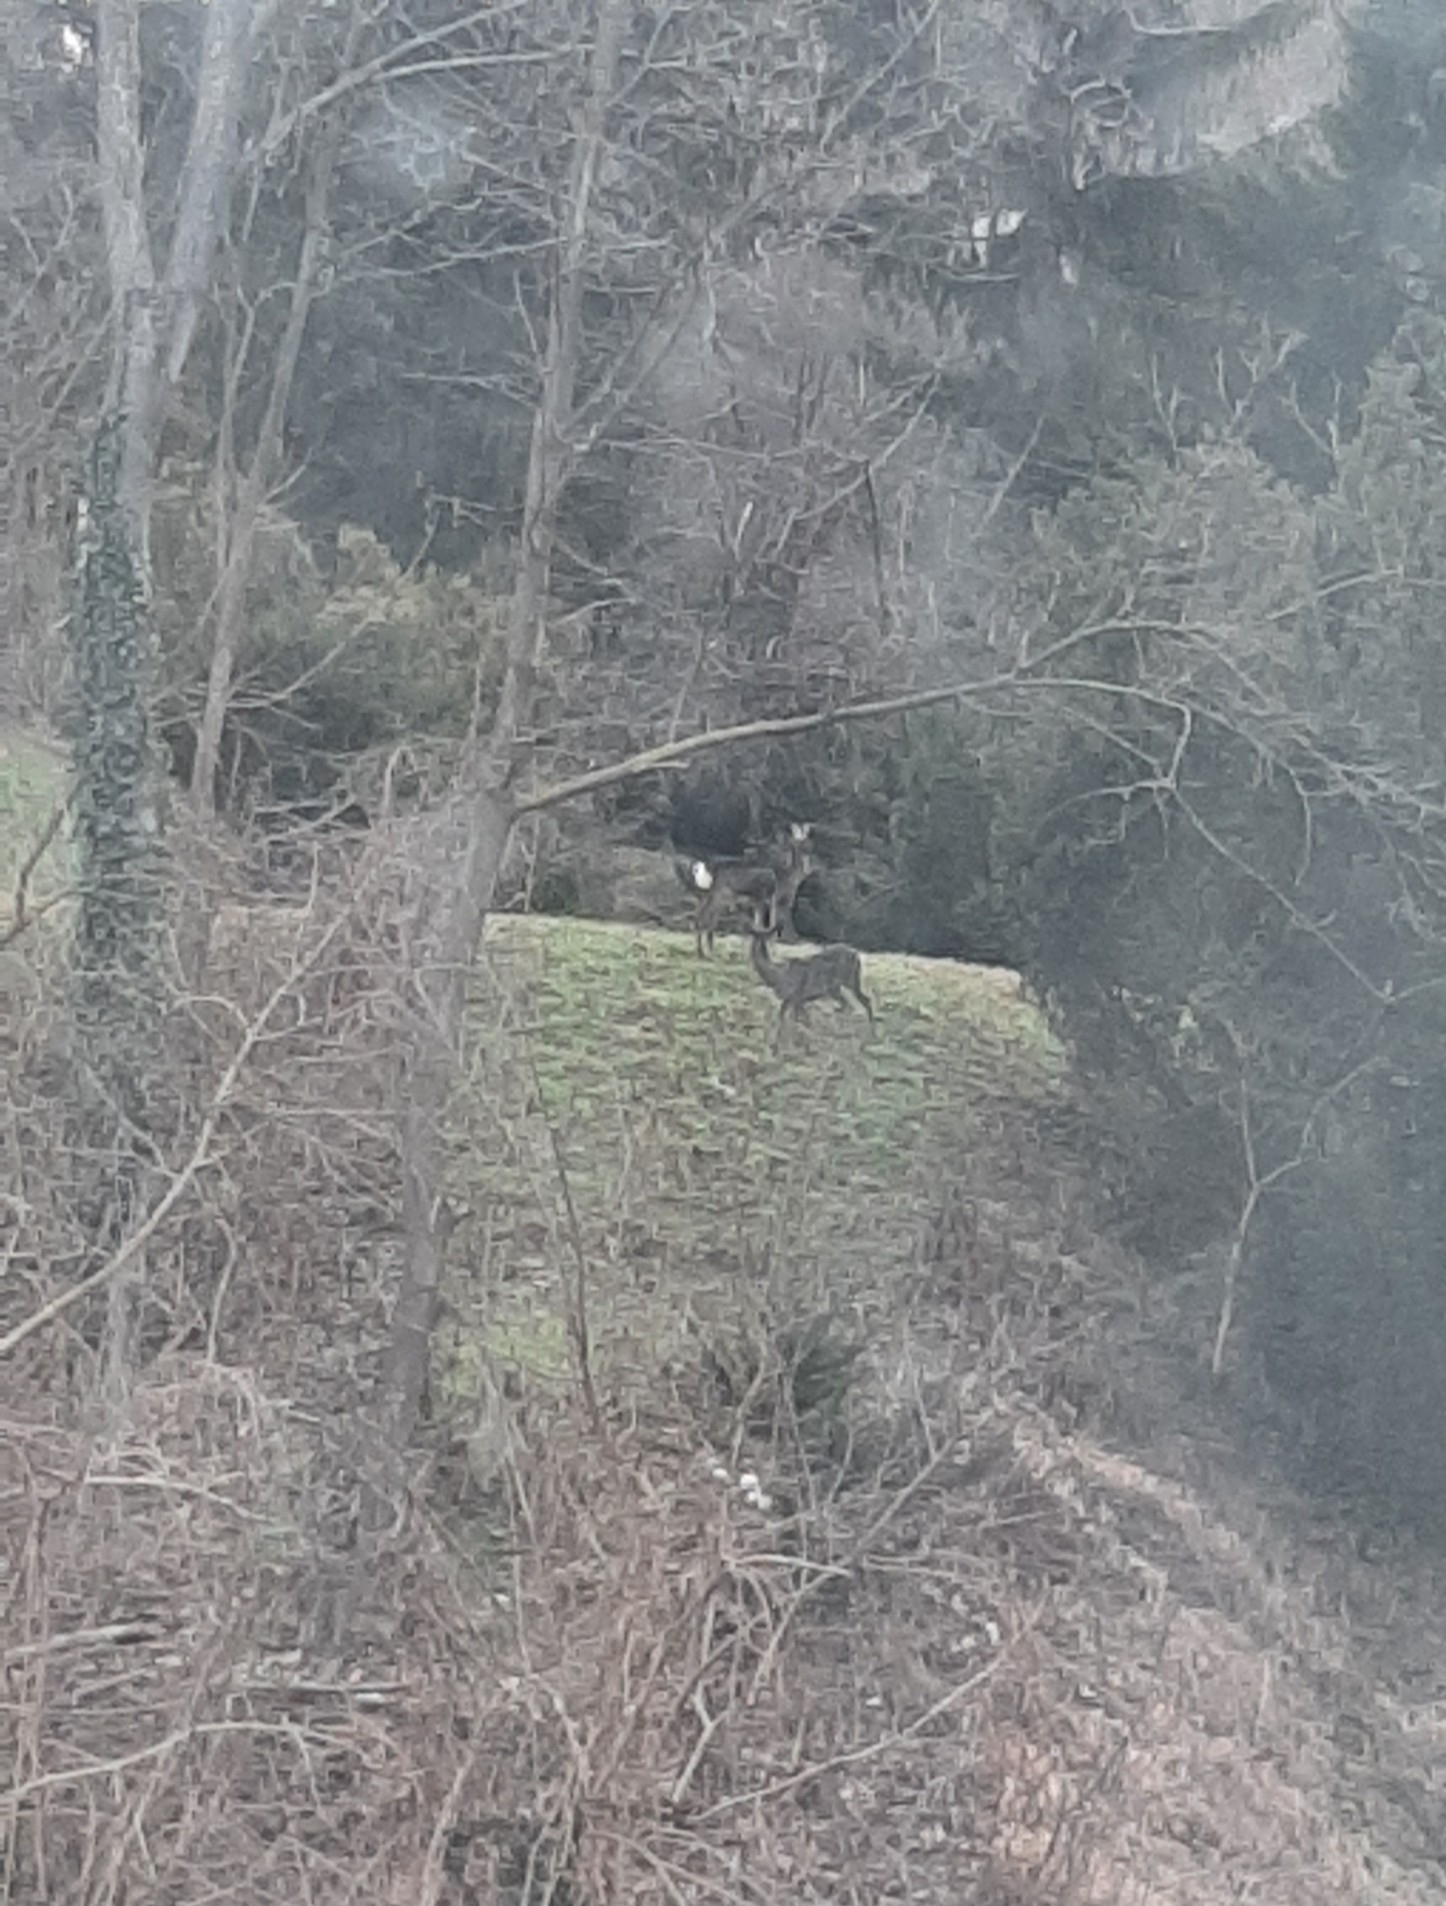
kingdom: Animalia
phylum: Chordata
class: Mammalia
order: Artiodactyla
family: Cervidae
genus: Capreolus
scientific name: Capreolus capreolus
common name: Western roe deer
